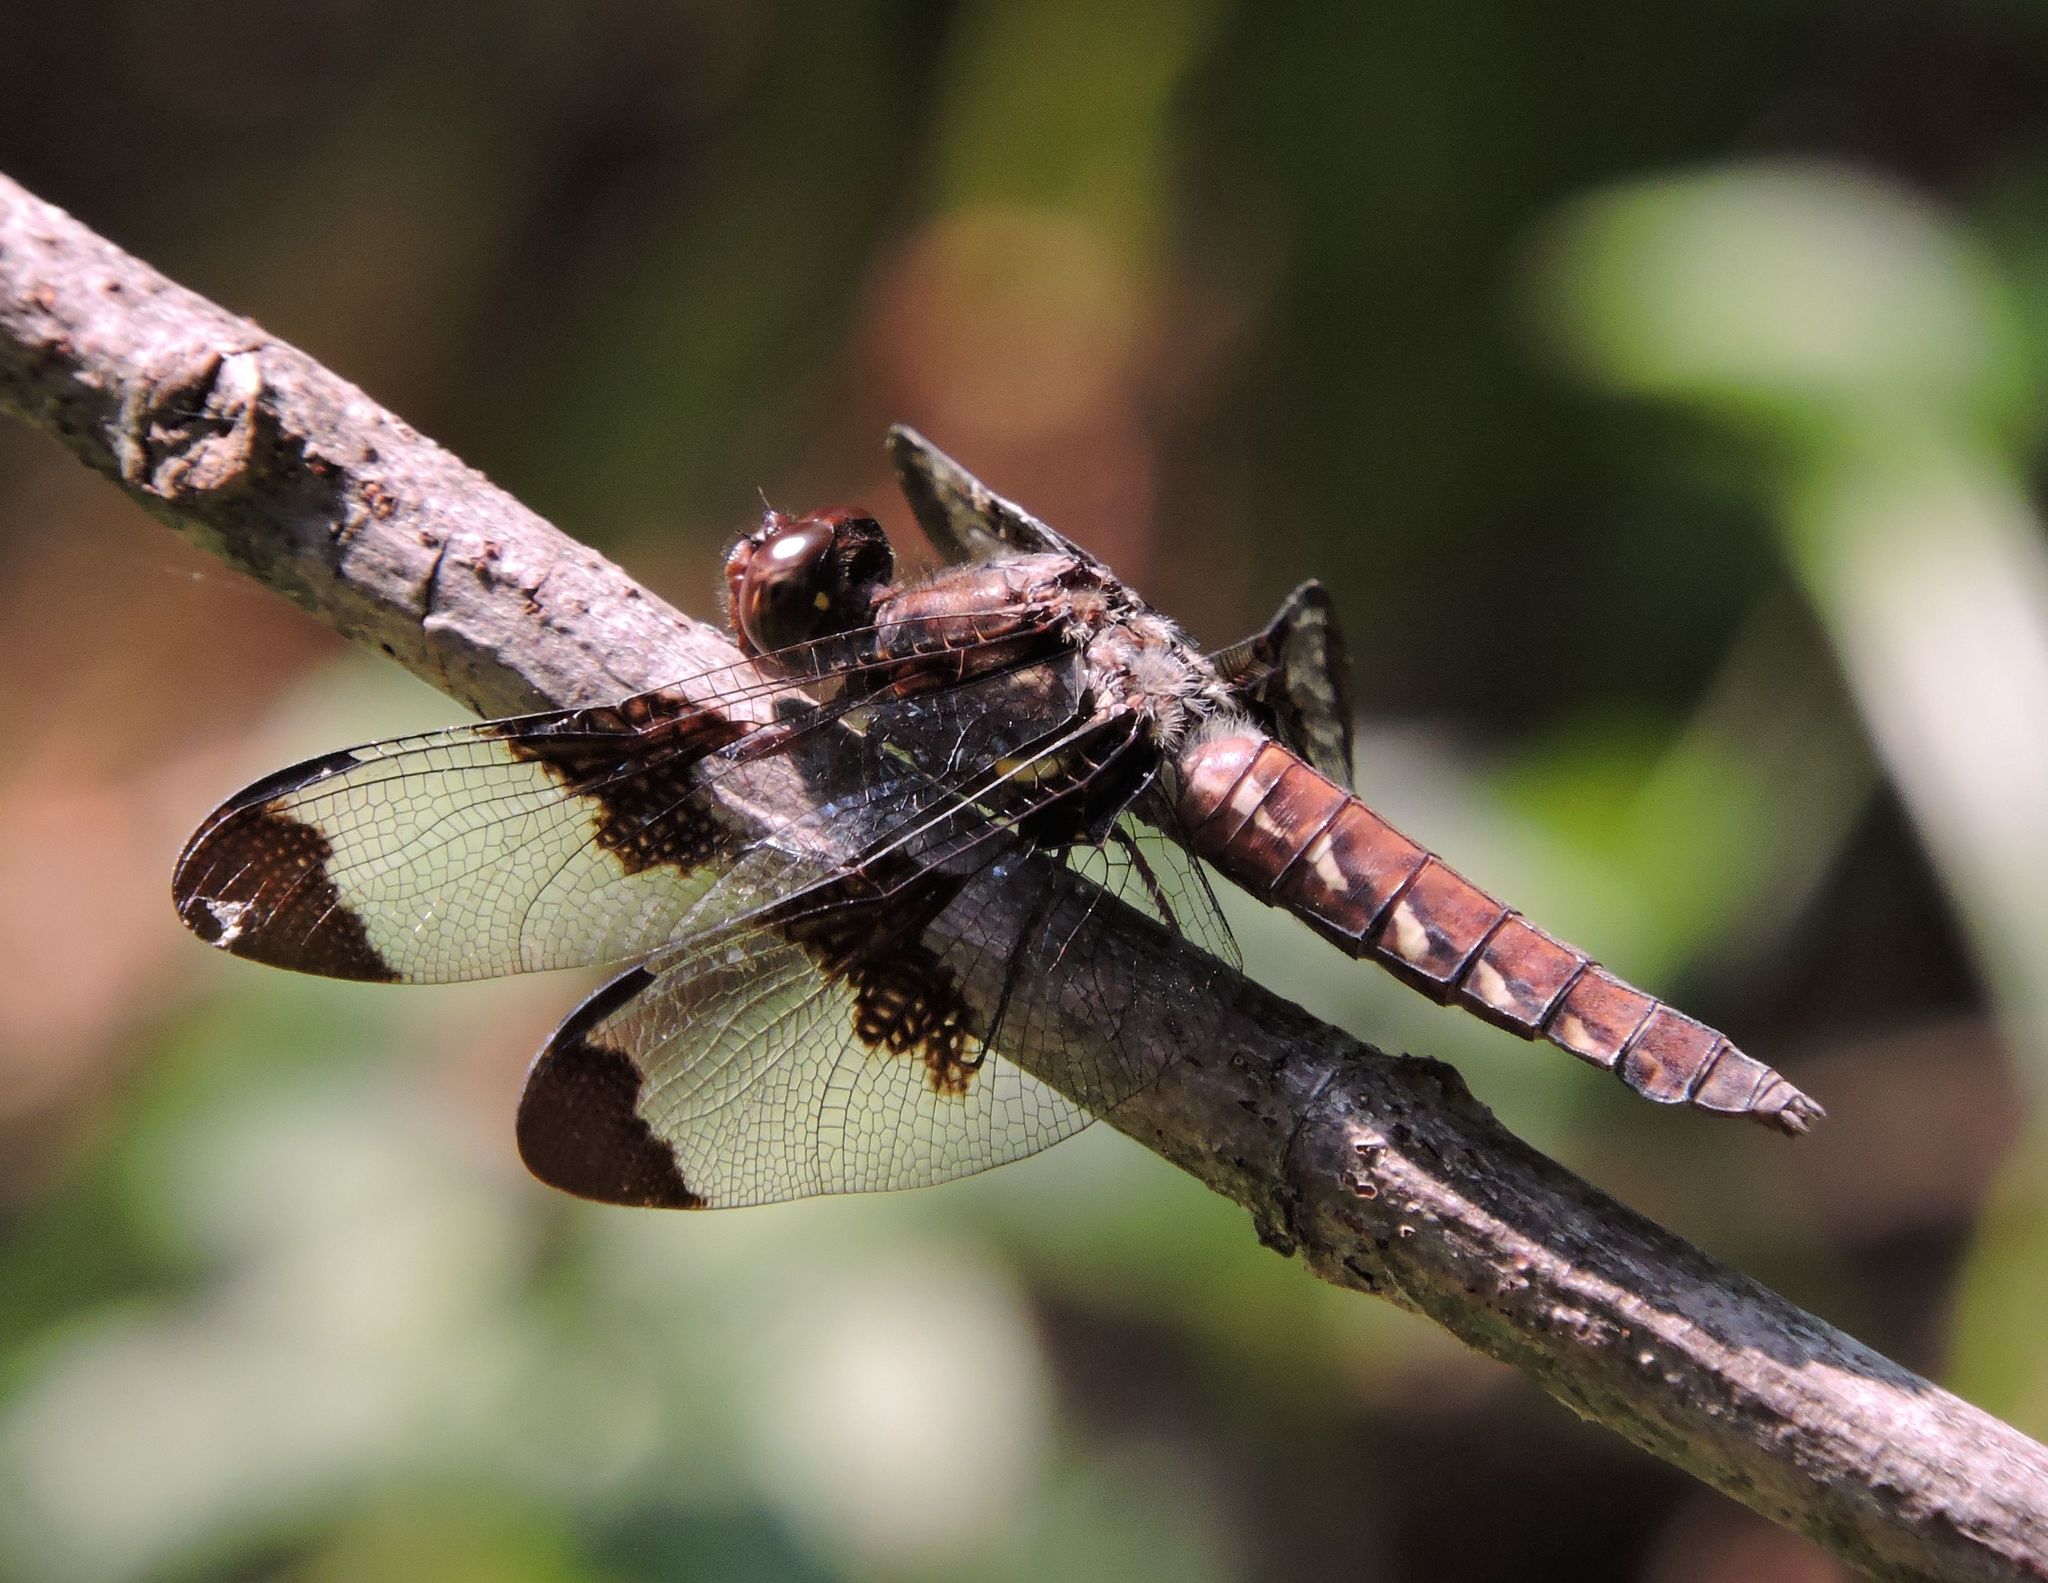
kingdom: Animalia
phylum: Arthropoda
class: Insecta
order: Odonata
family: Libellulidae
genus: Plathemis
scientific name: Plathemis lydia
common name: Common whitetail
